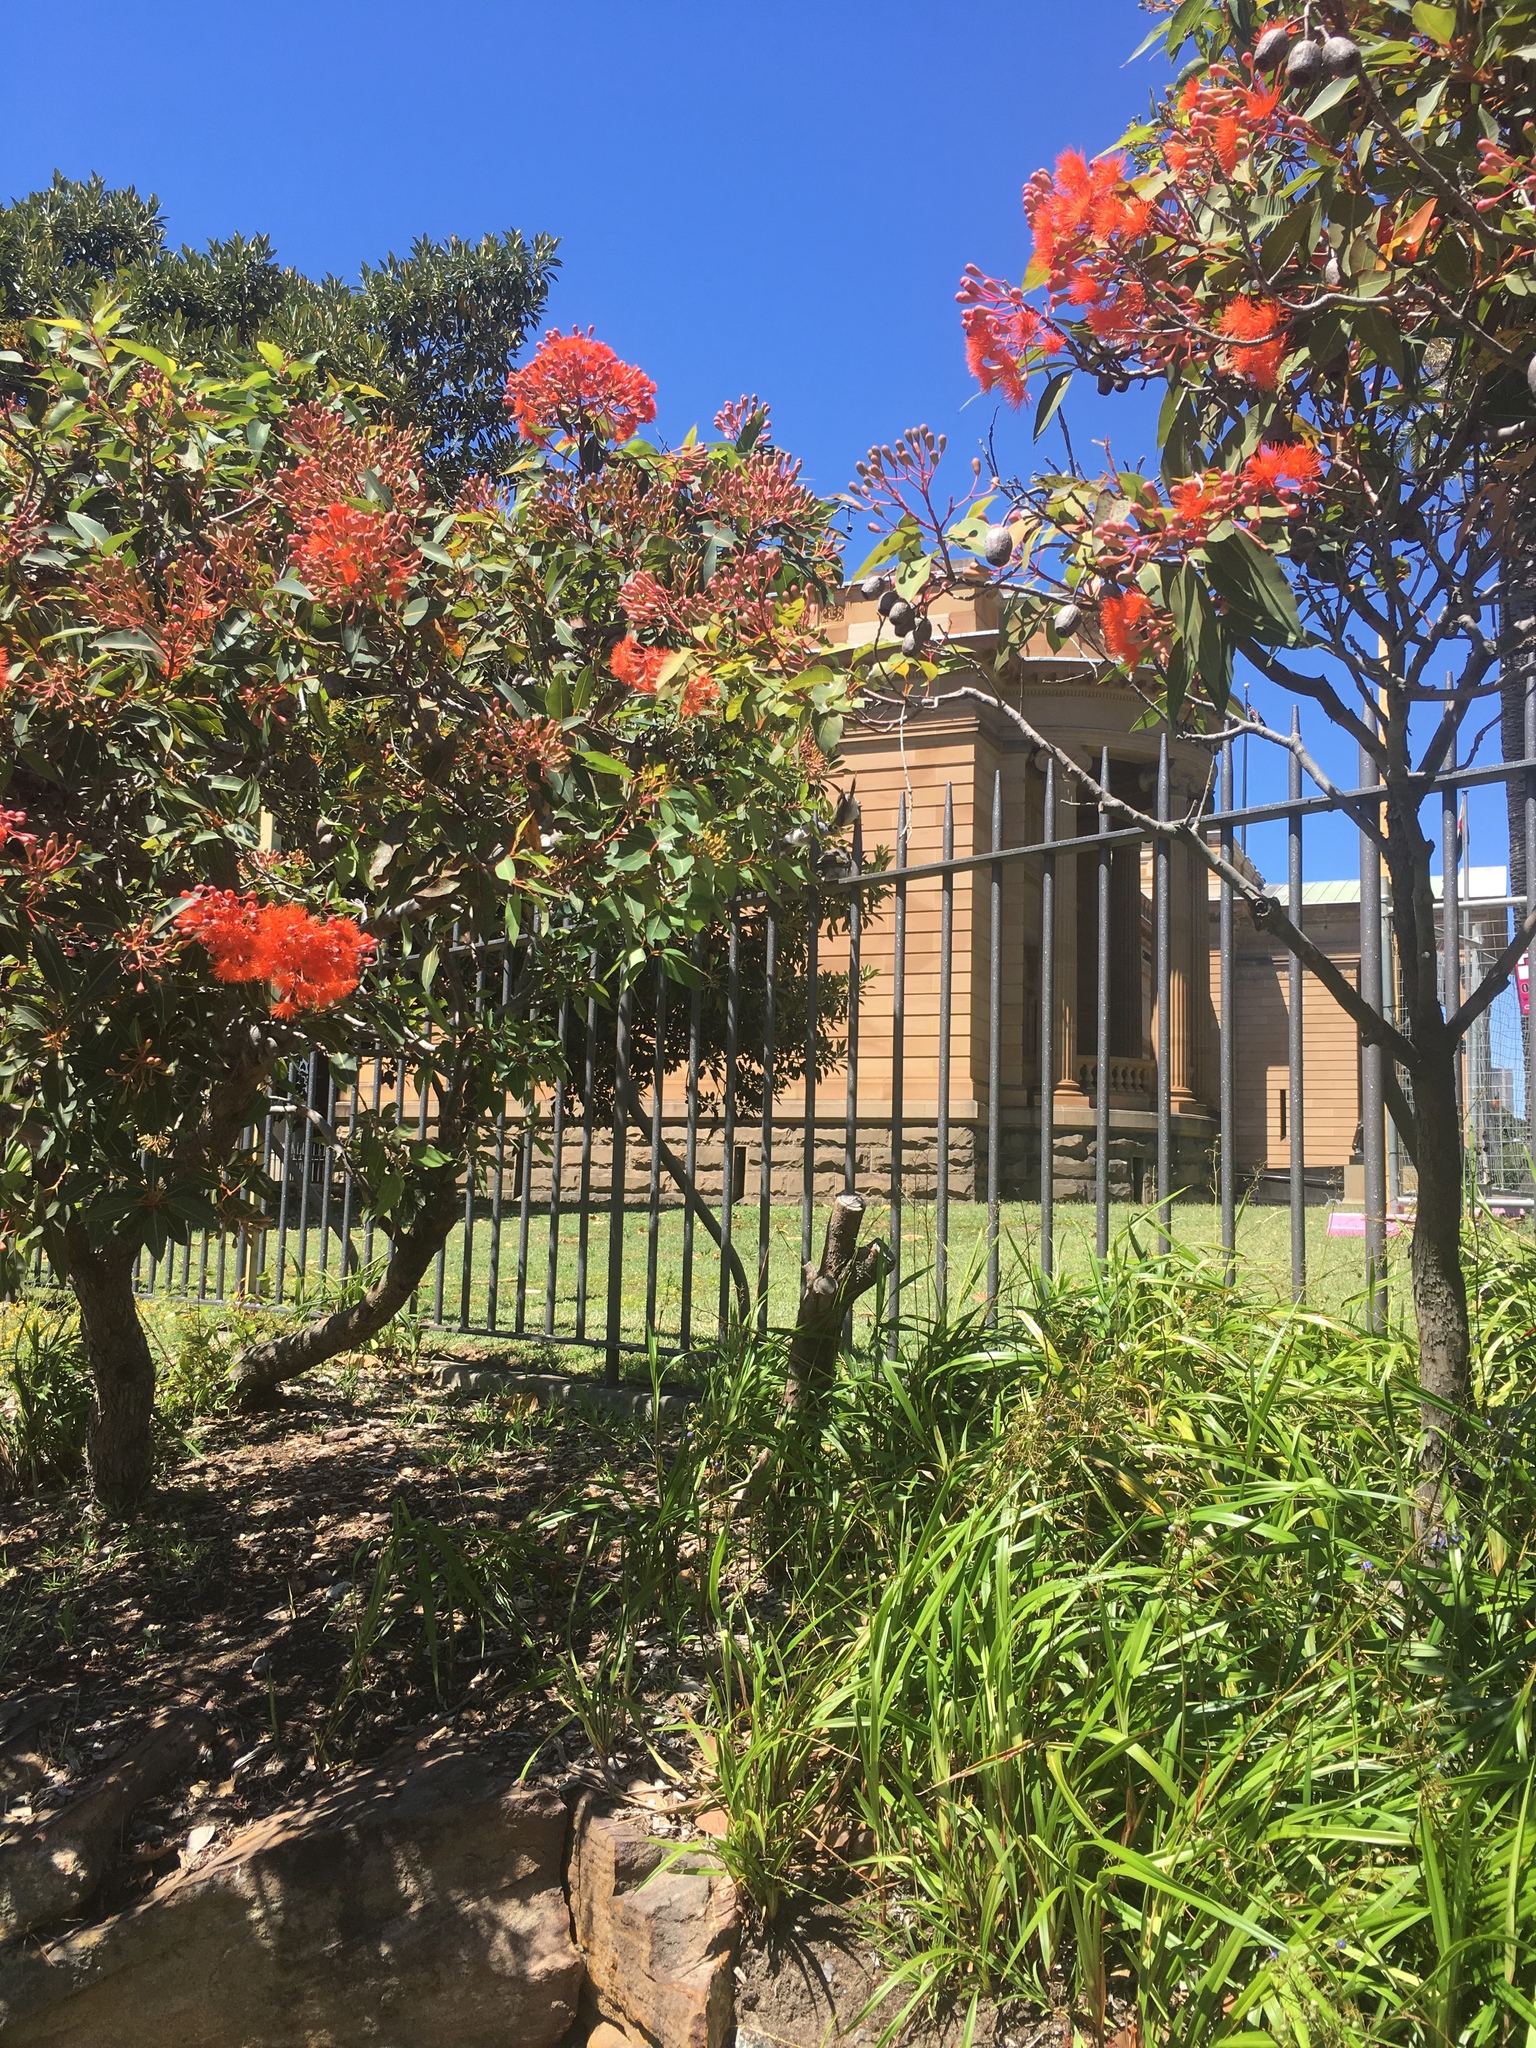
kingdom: Animalia
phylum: Chordata
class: Aves
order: Passeriformes
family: Meliphagidae
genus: Manorina
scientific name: Manorina melanocephala
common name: Noisy miner
